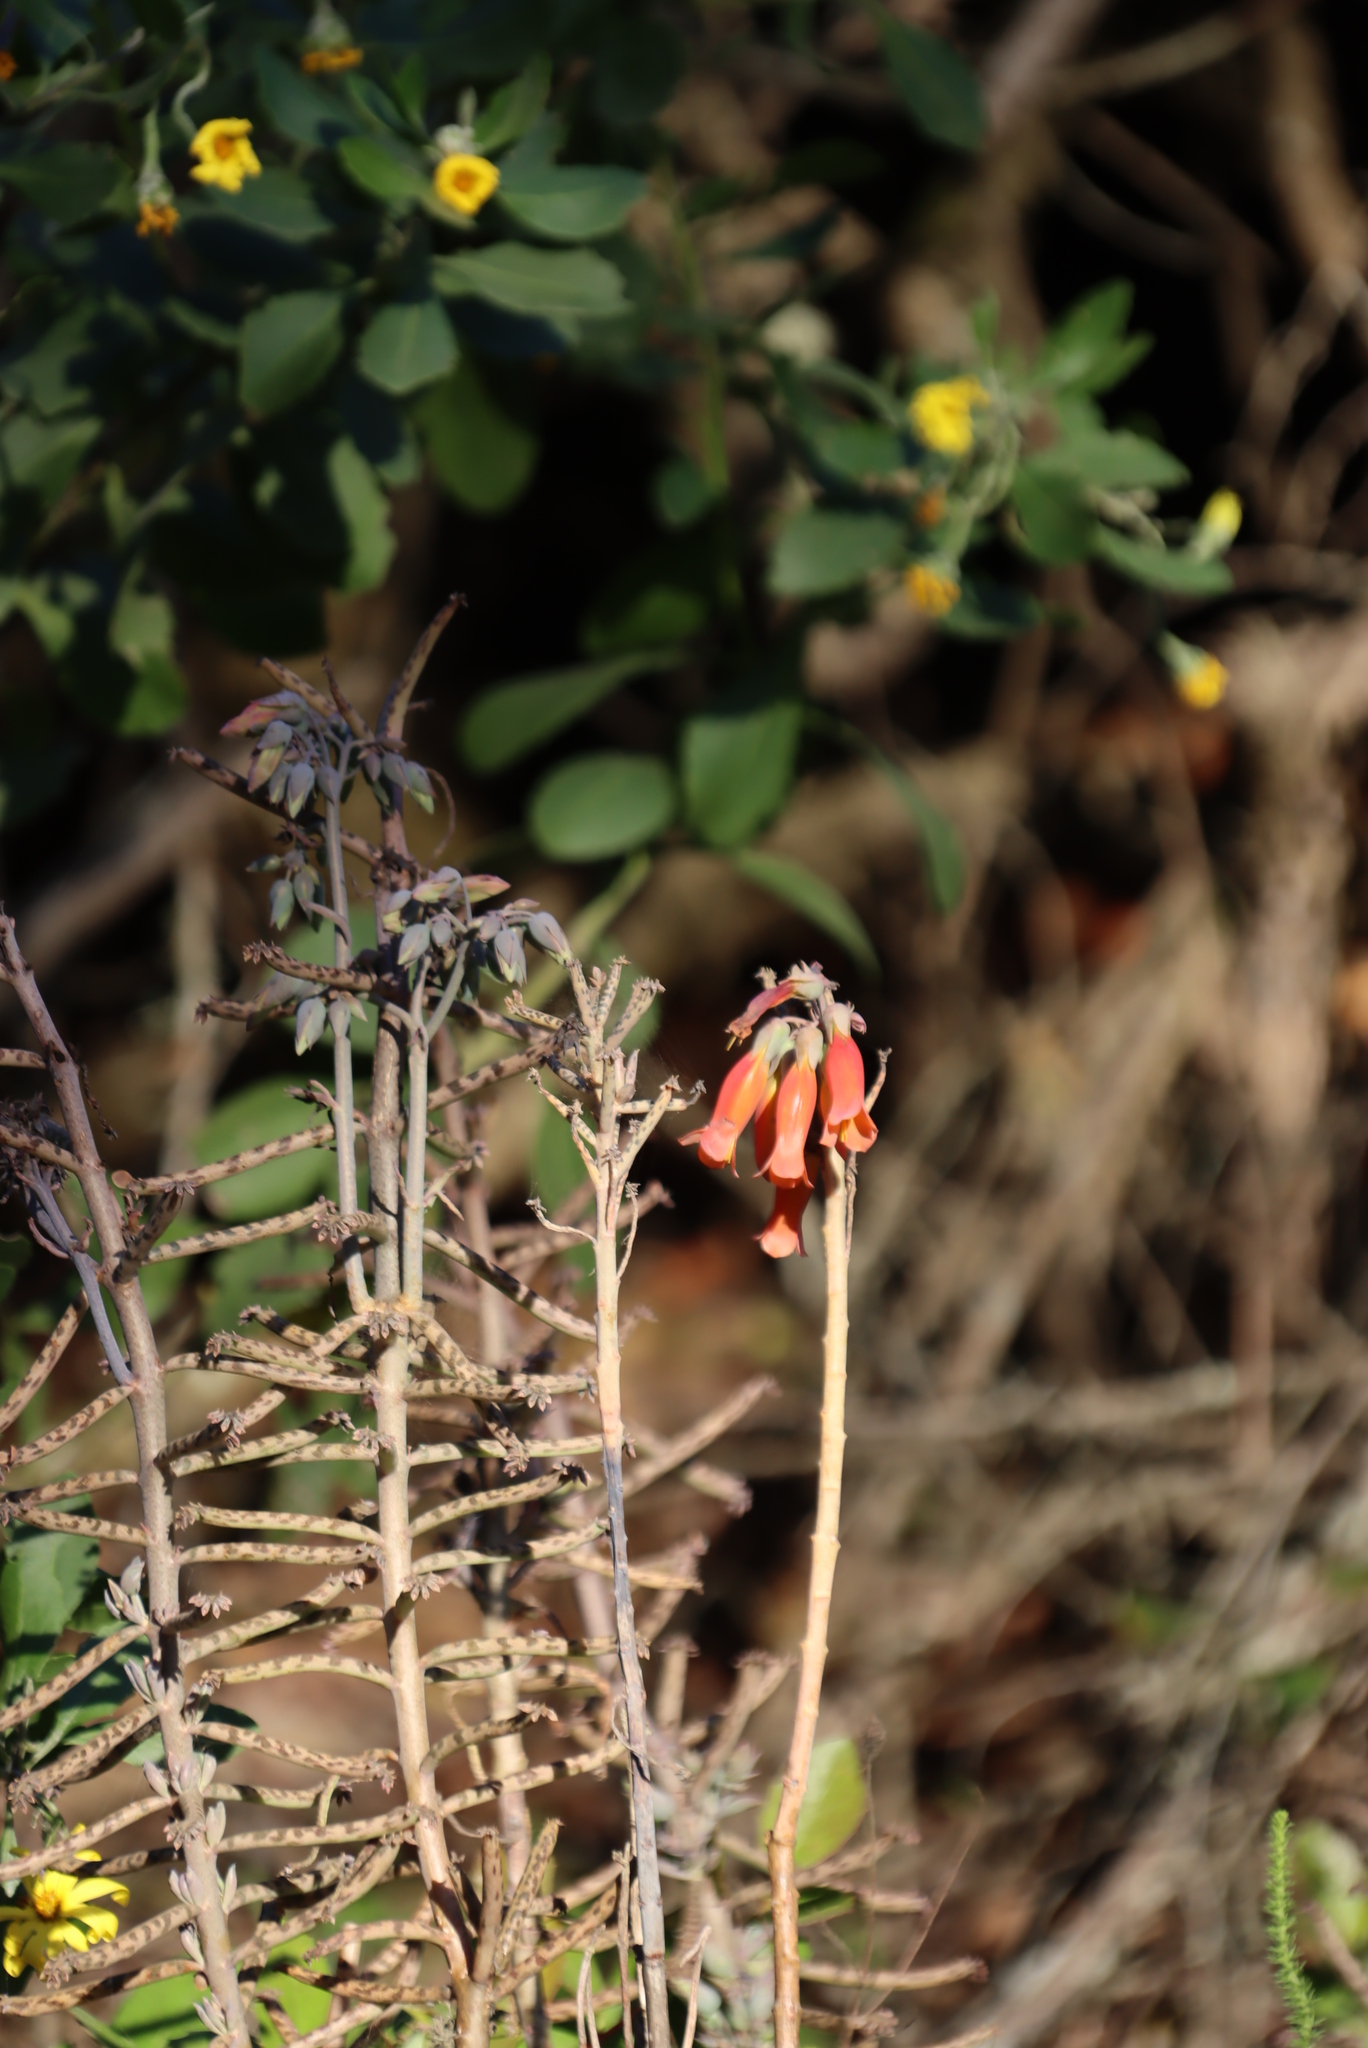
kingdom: Plantae
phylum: Tracheophyta
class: Magnoliopsida
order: Saxifragales
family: Crassulaceae
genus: Kalanchoe
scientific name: Kalanchoe delagoensis
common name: Chandelier plant
